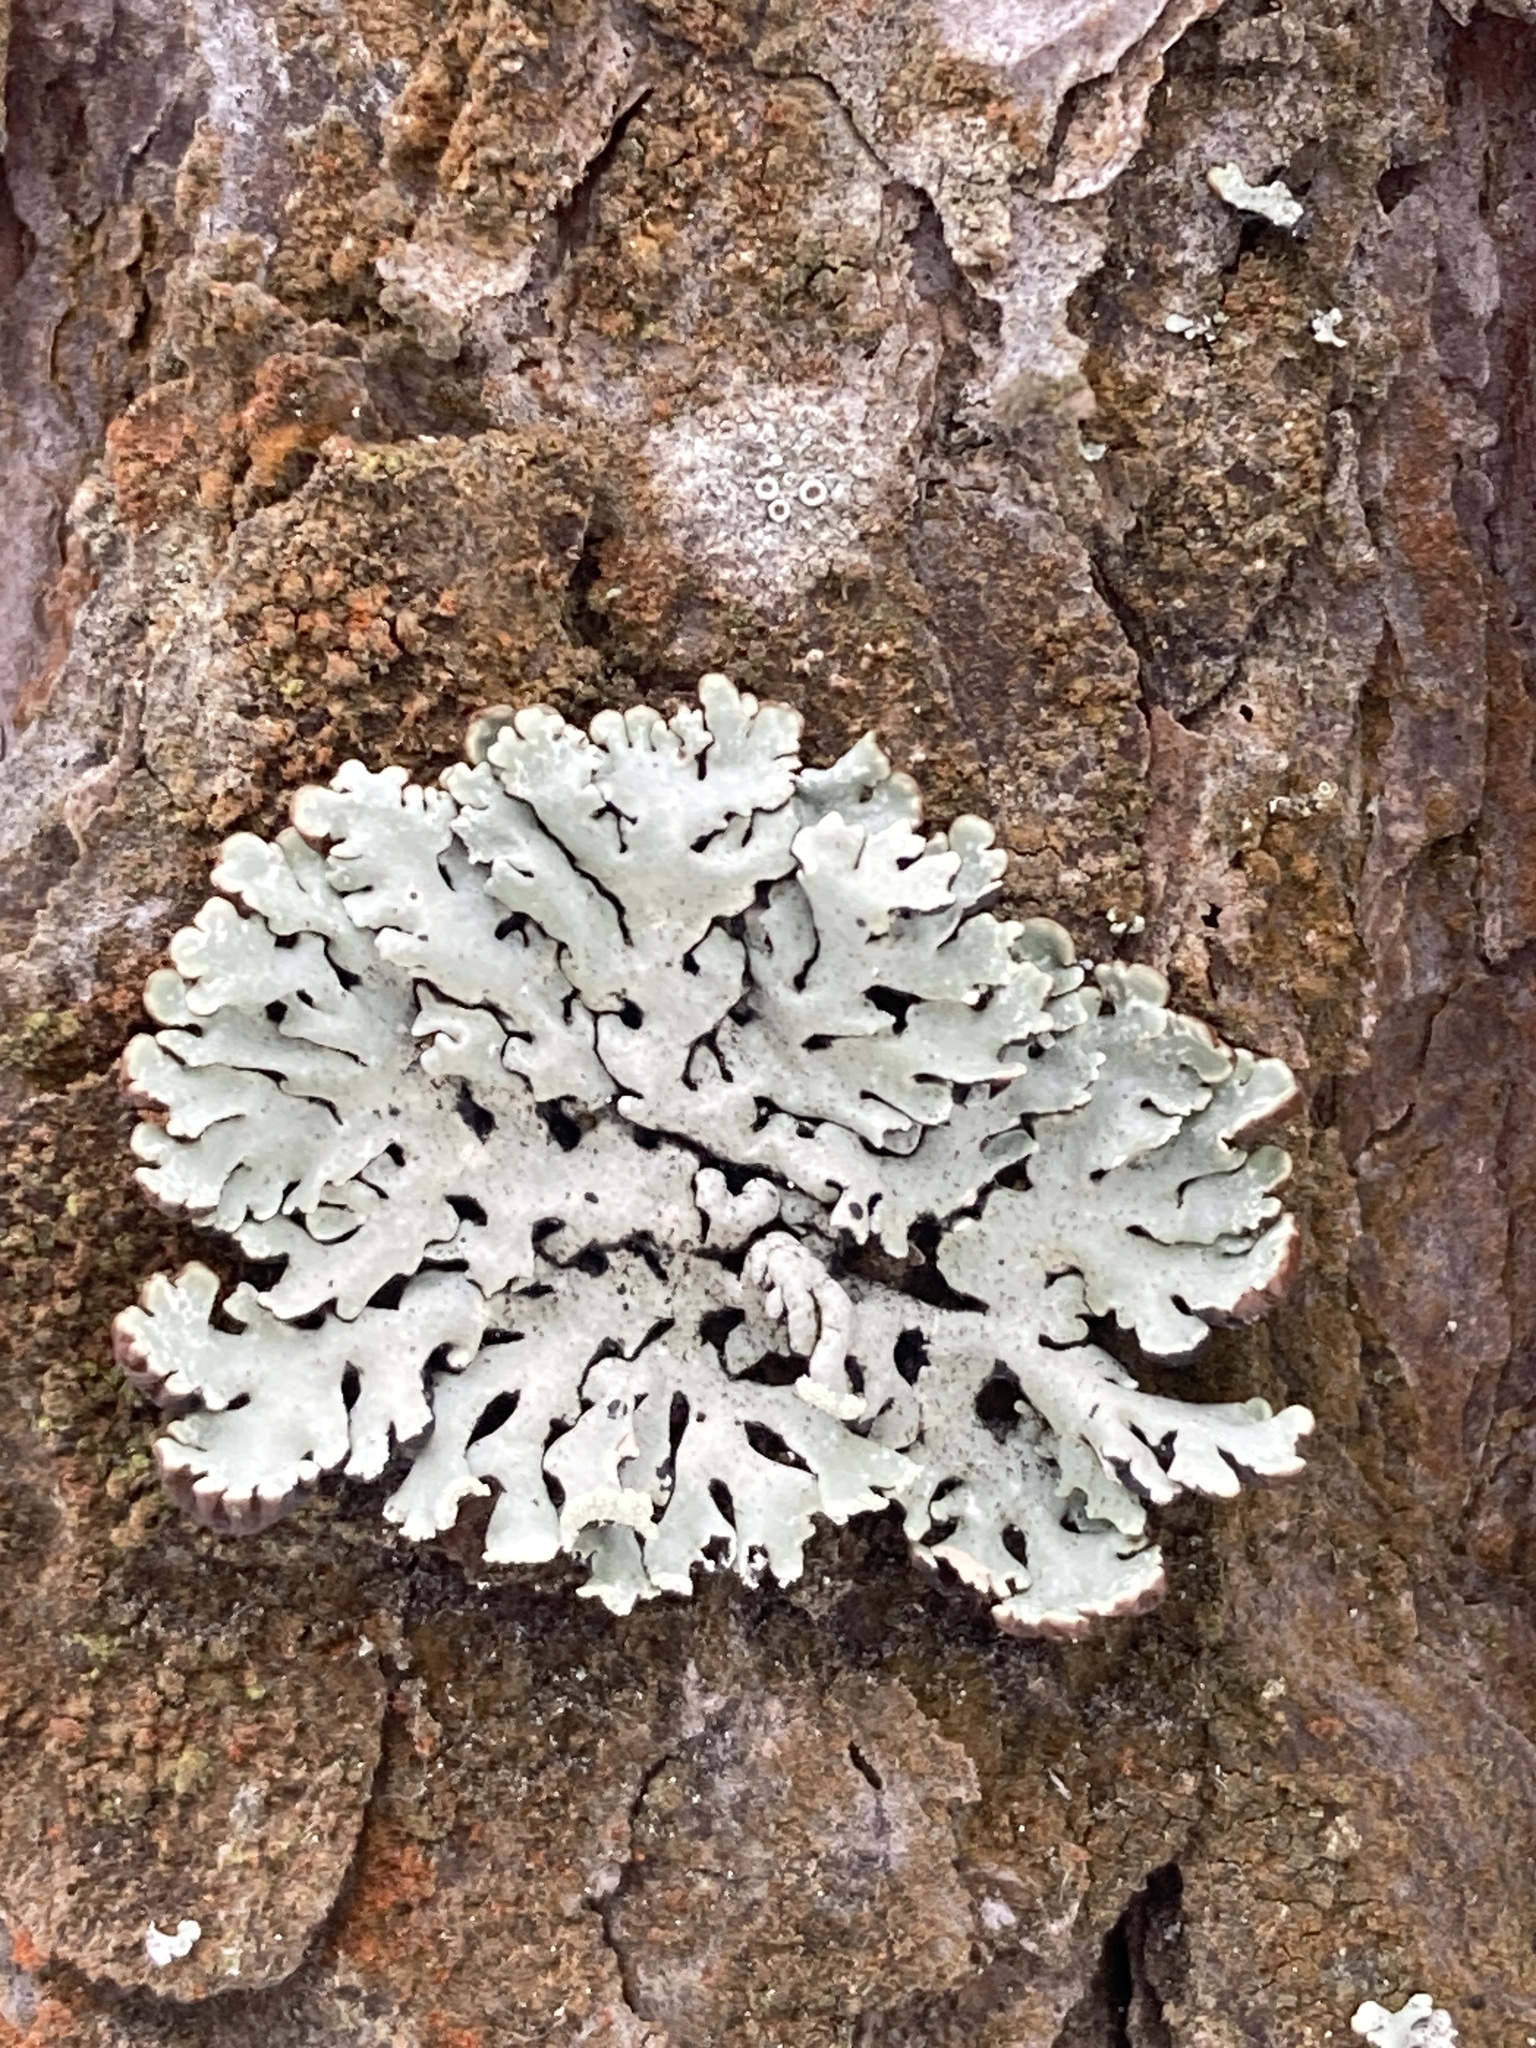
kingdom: Fungi
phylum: Ascomycota
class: Lecanoromycetes
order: Lecanorales
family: Parmeliaceae
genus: Hypogymnia
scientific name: Hypogymnia physodes
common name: Dark crottle
